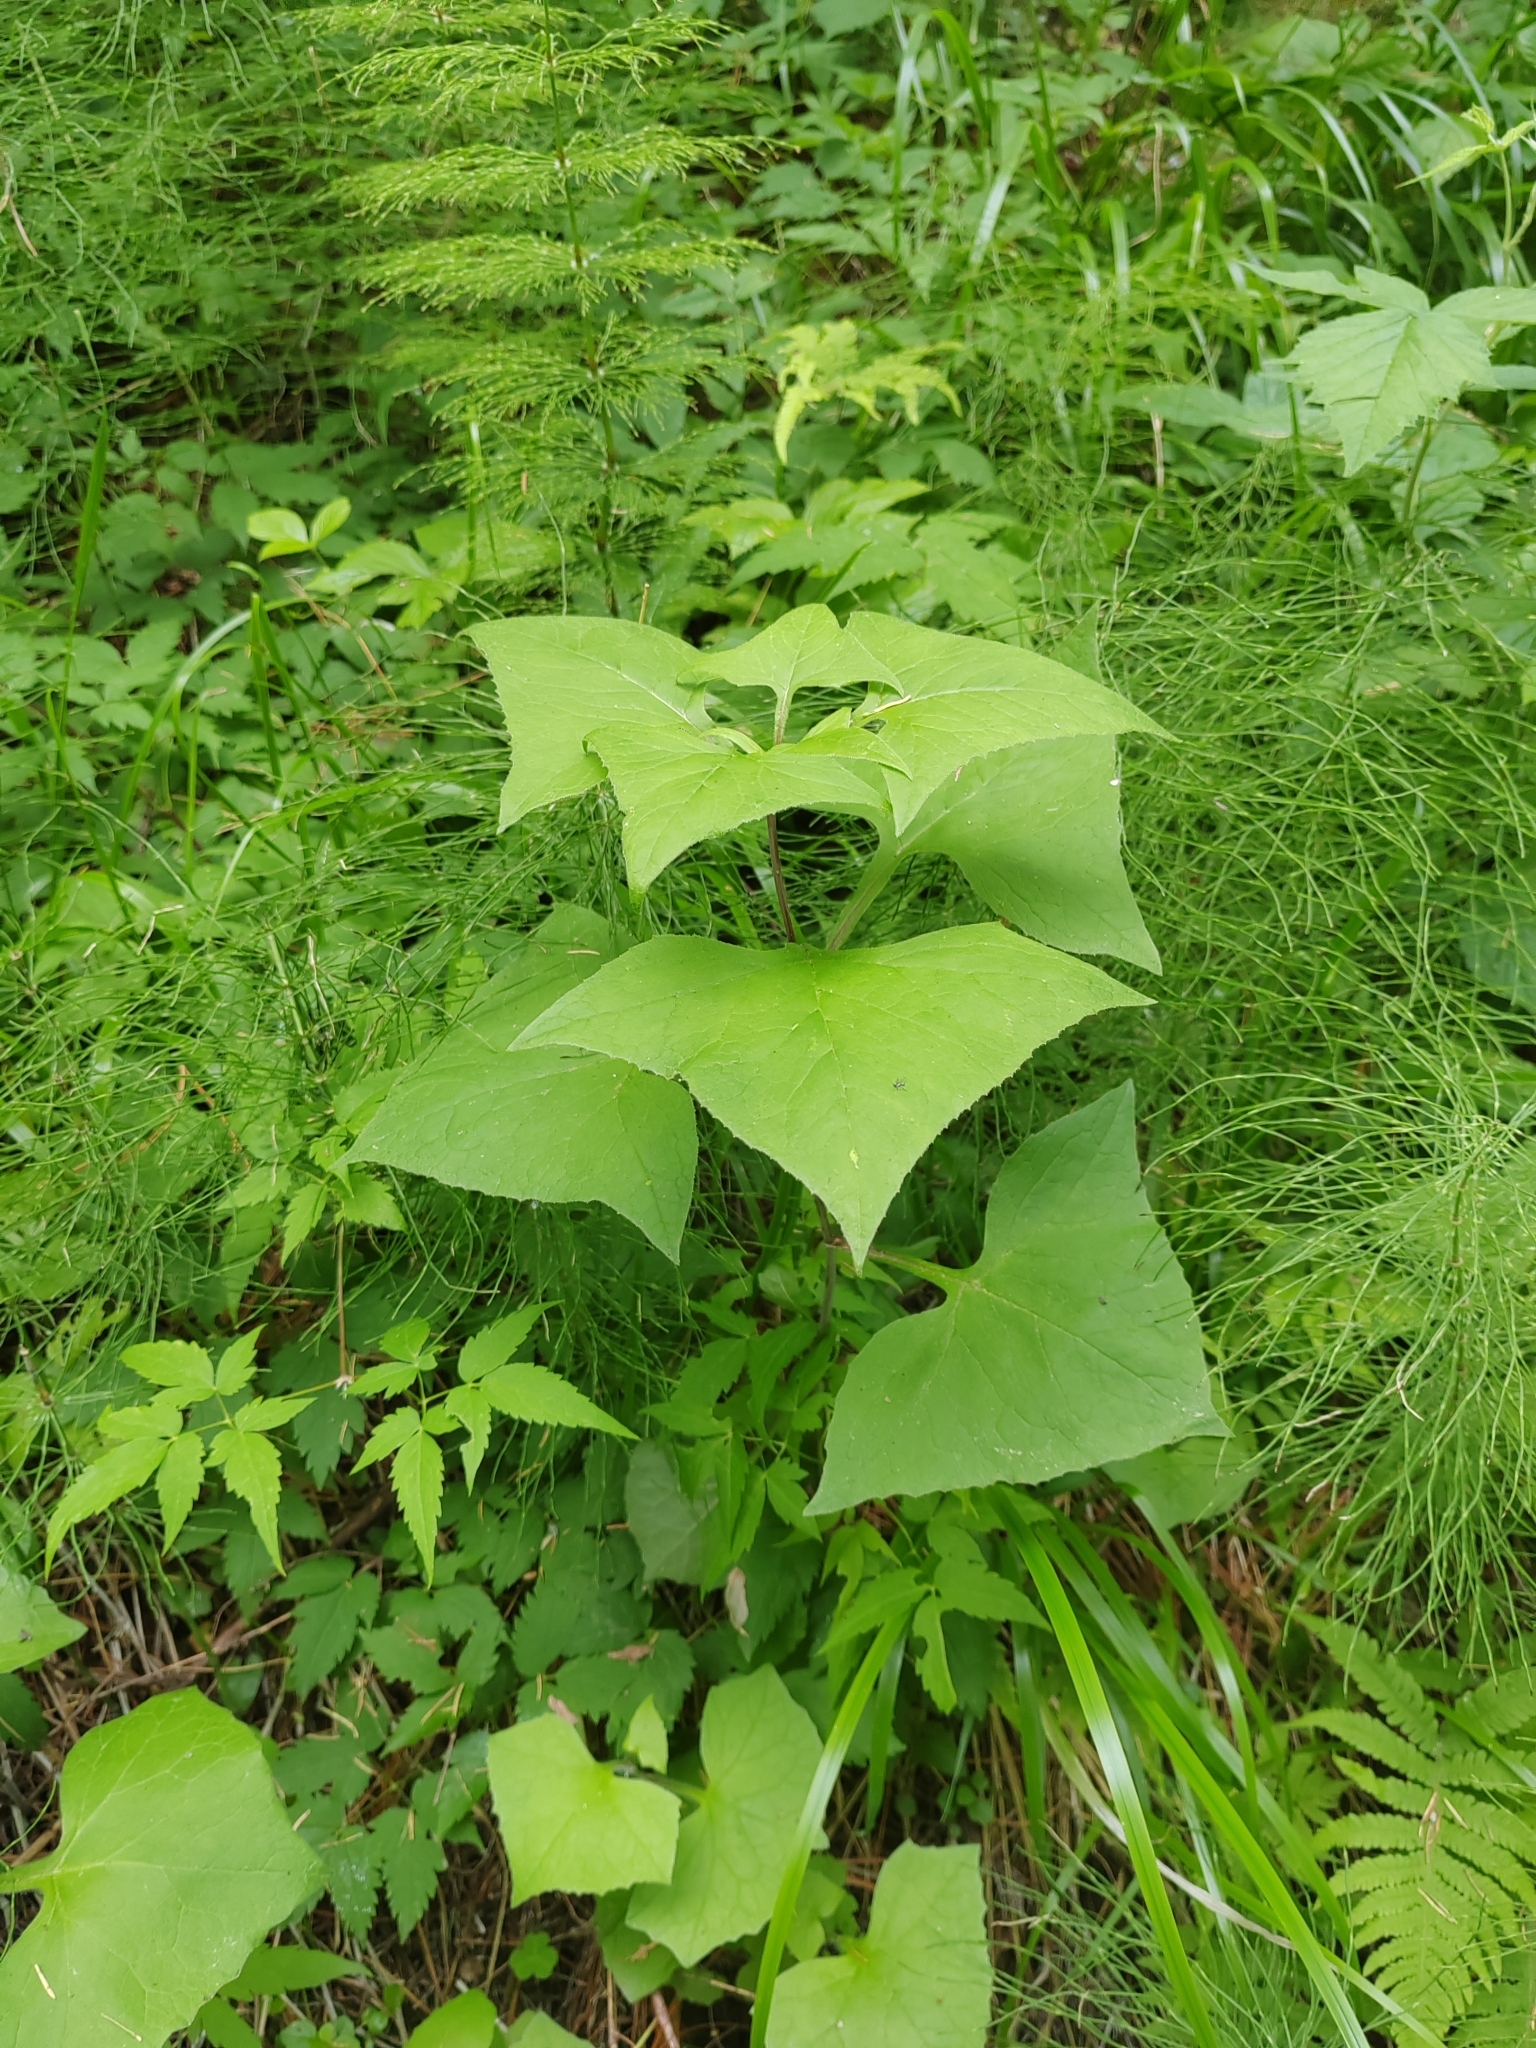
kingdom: Plantae
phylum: Tracheophyta
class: Magnoliopsida
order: Asterales
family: Asteraceae
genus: Parasenecio
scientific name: Parasenecio hastatus
